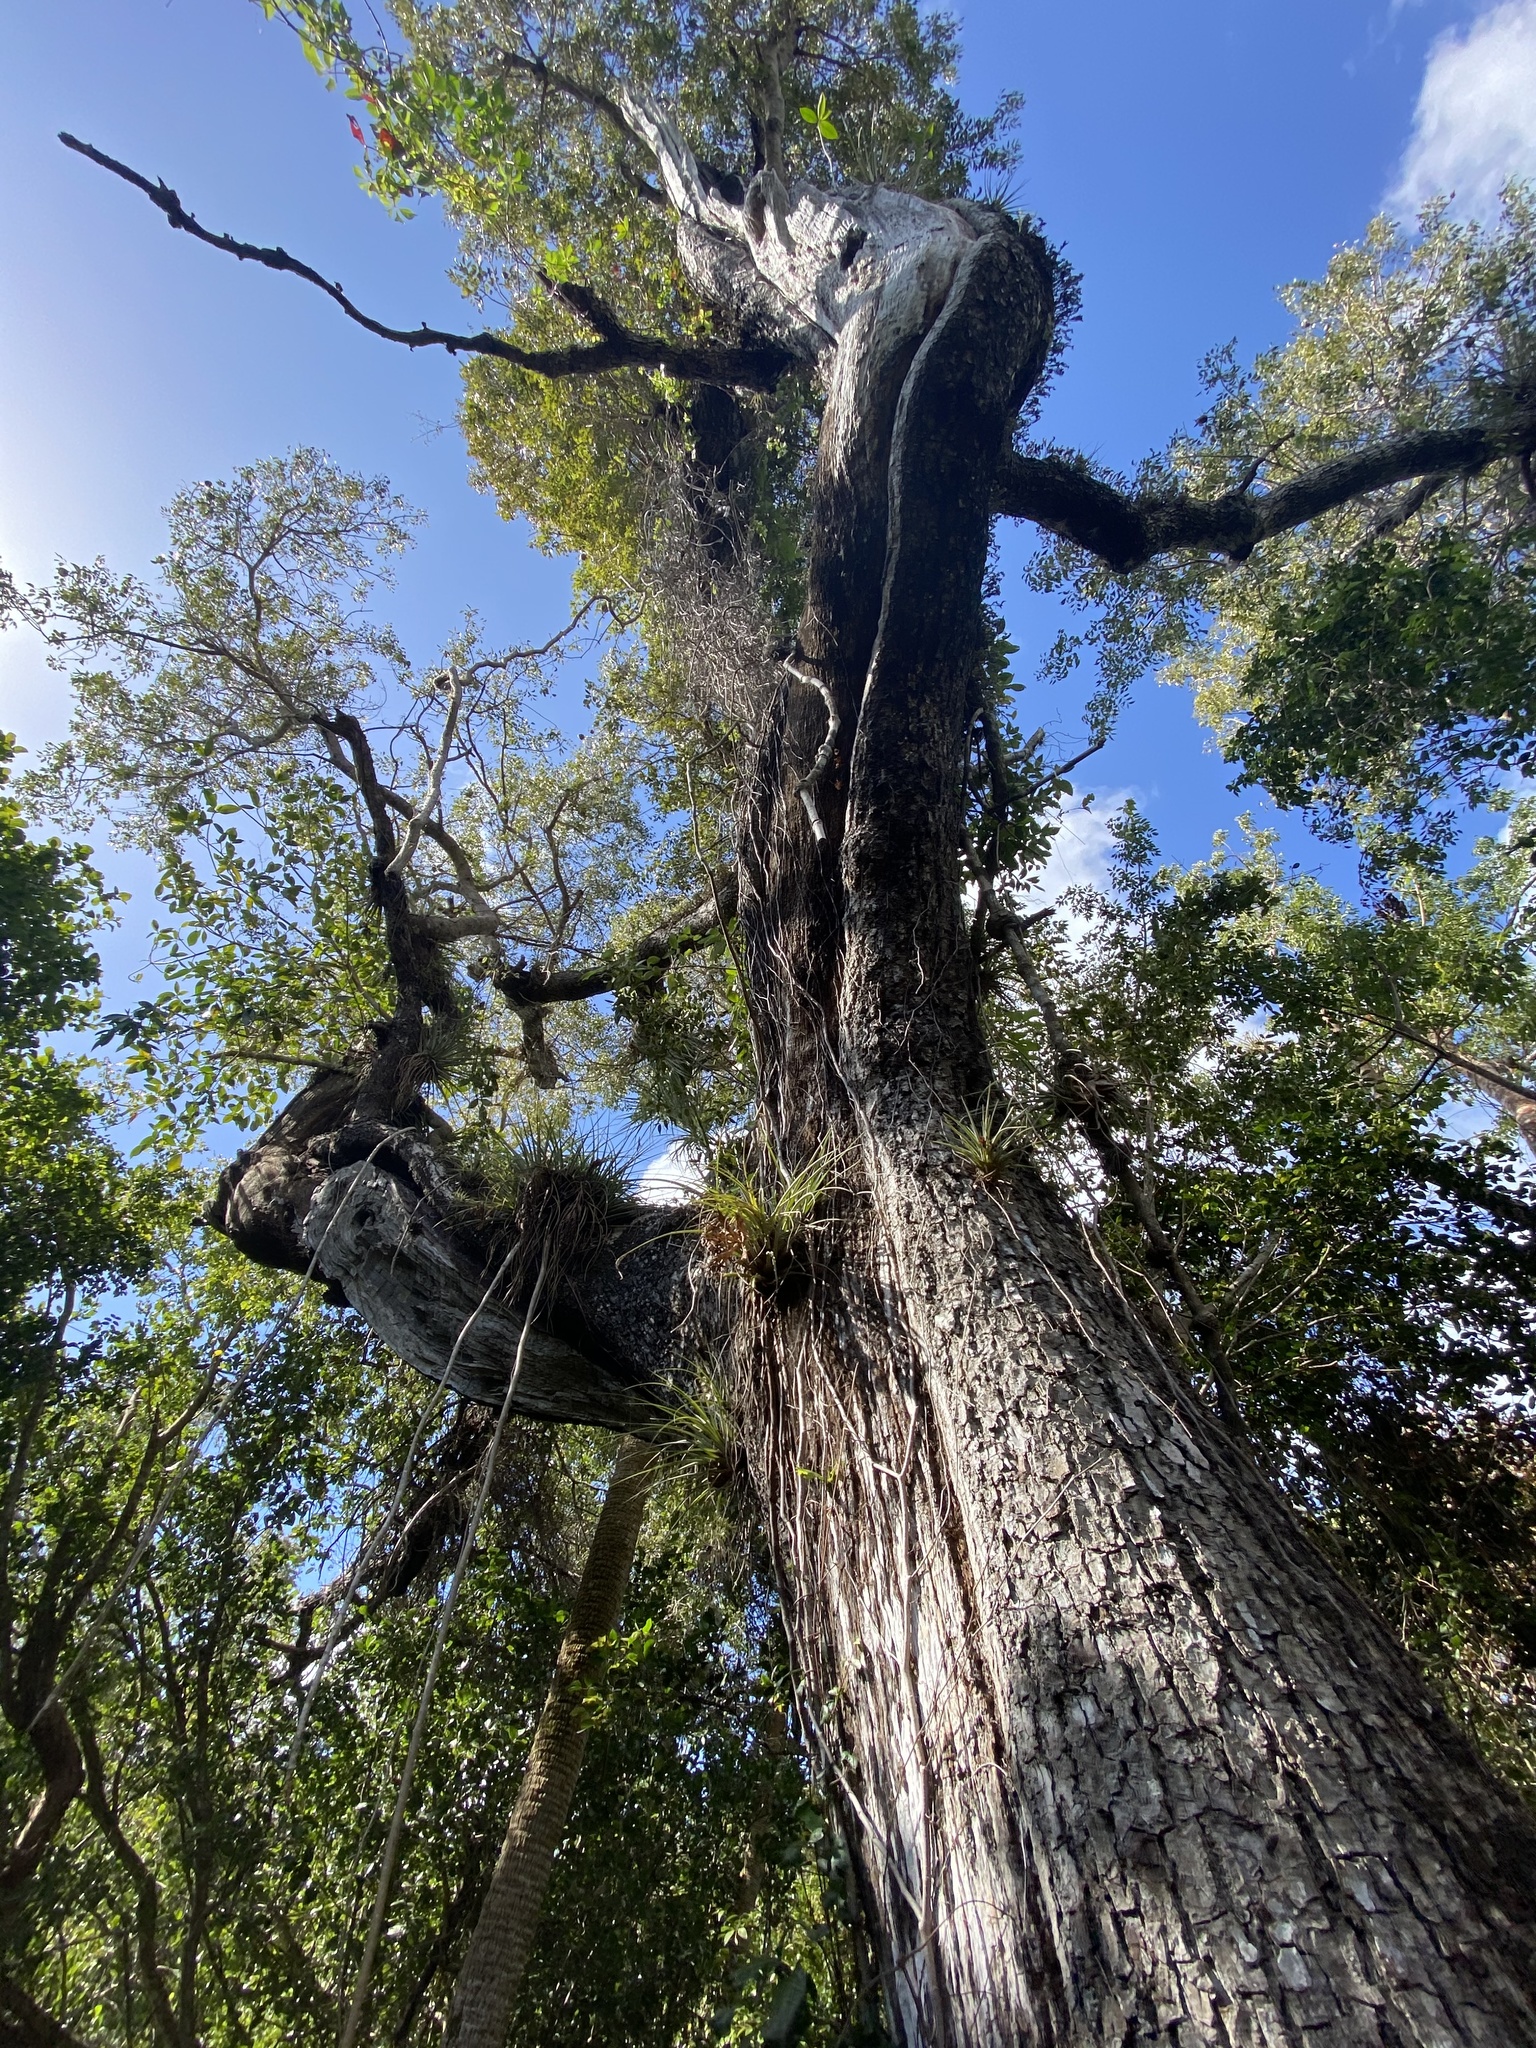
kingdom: Plantae
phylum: Tracheophyta
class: Magnoliopsida
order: Sapindales
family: Meliaceae
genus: Swietenia
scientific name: Swietenia mahagoni
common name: West indian mahogany
